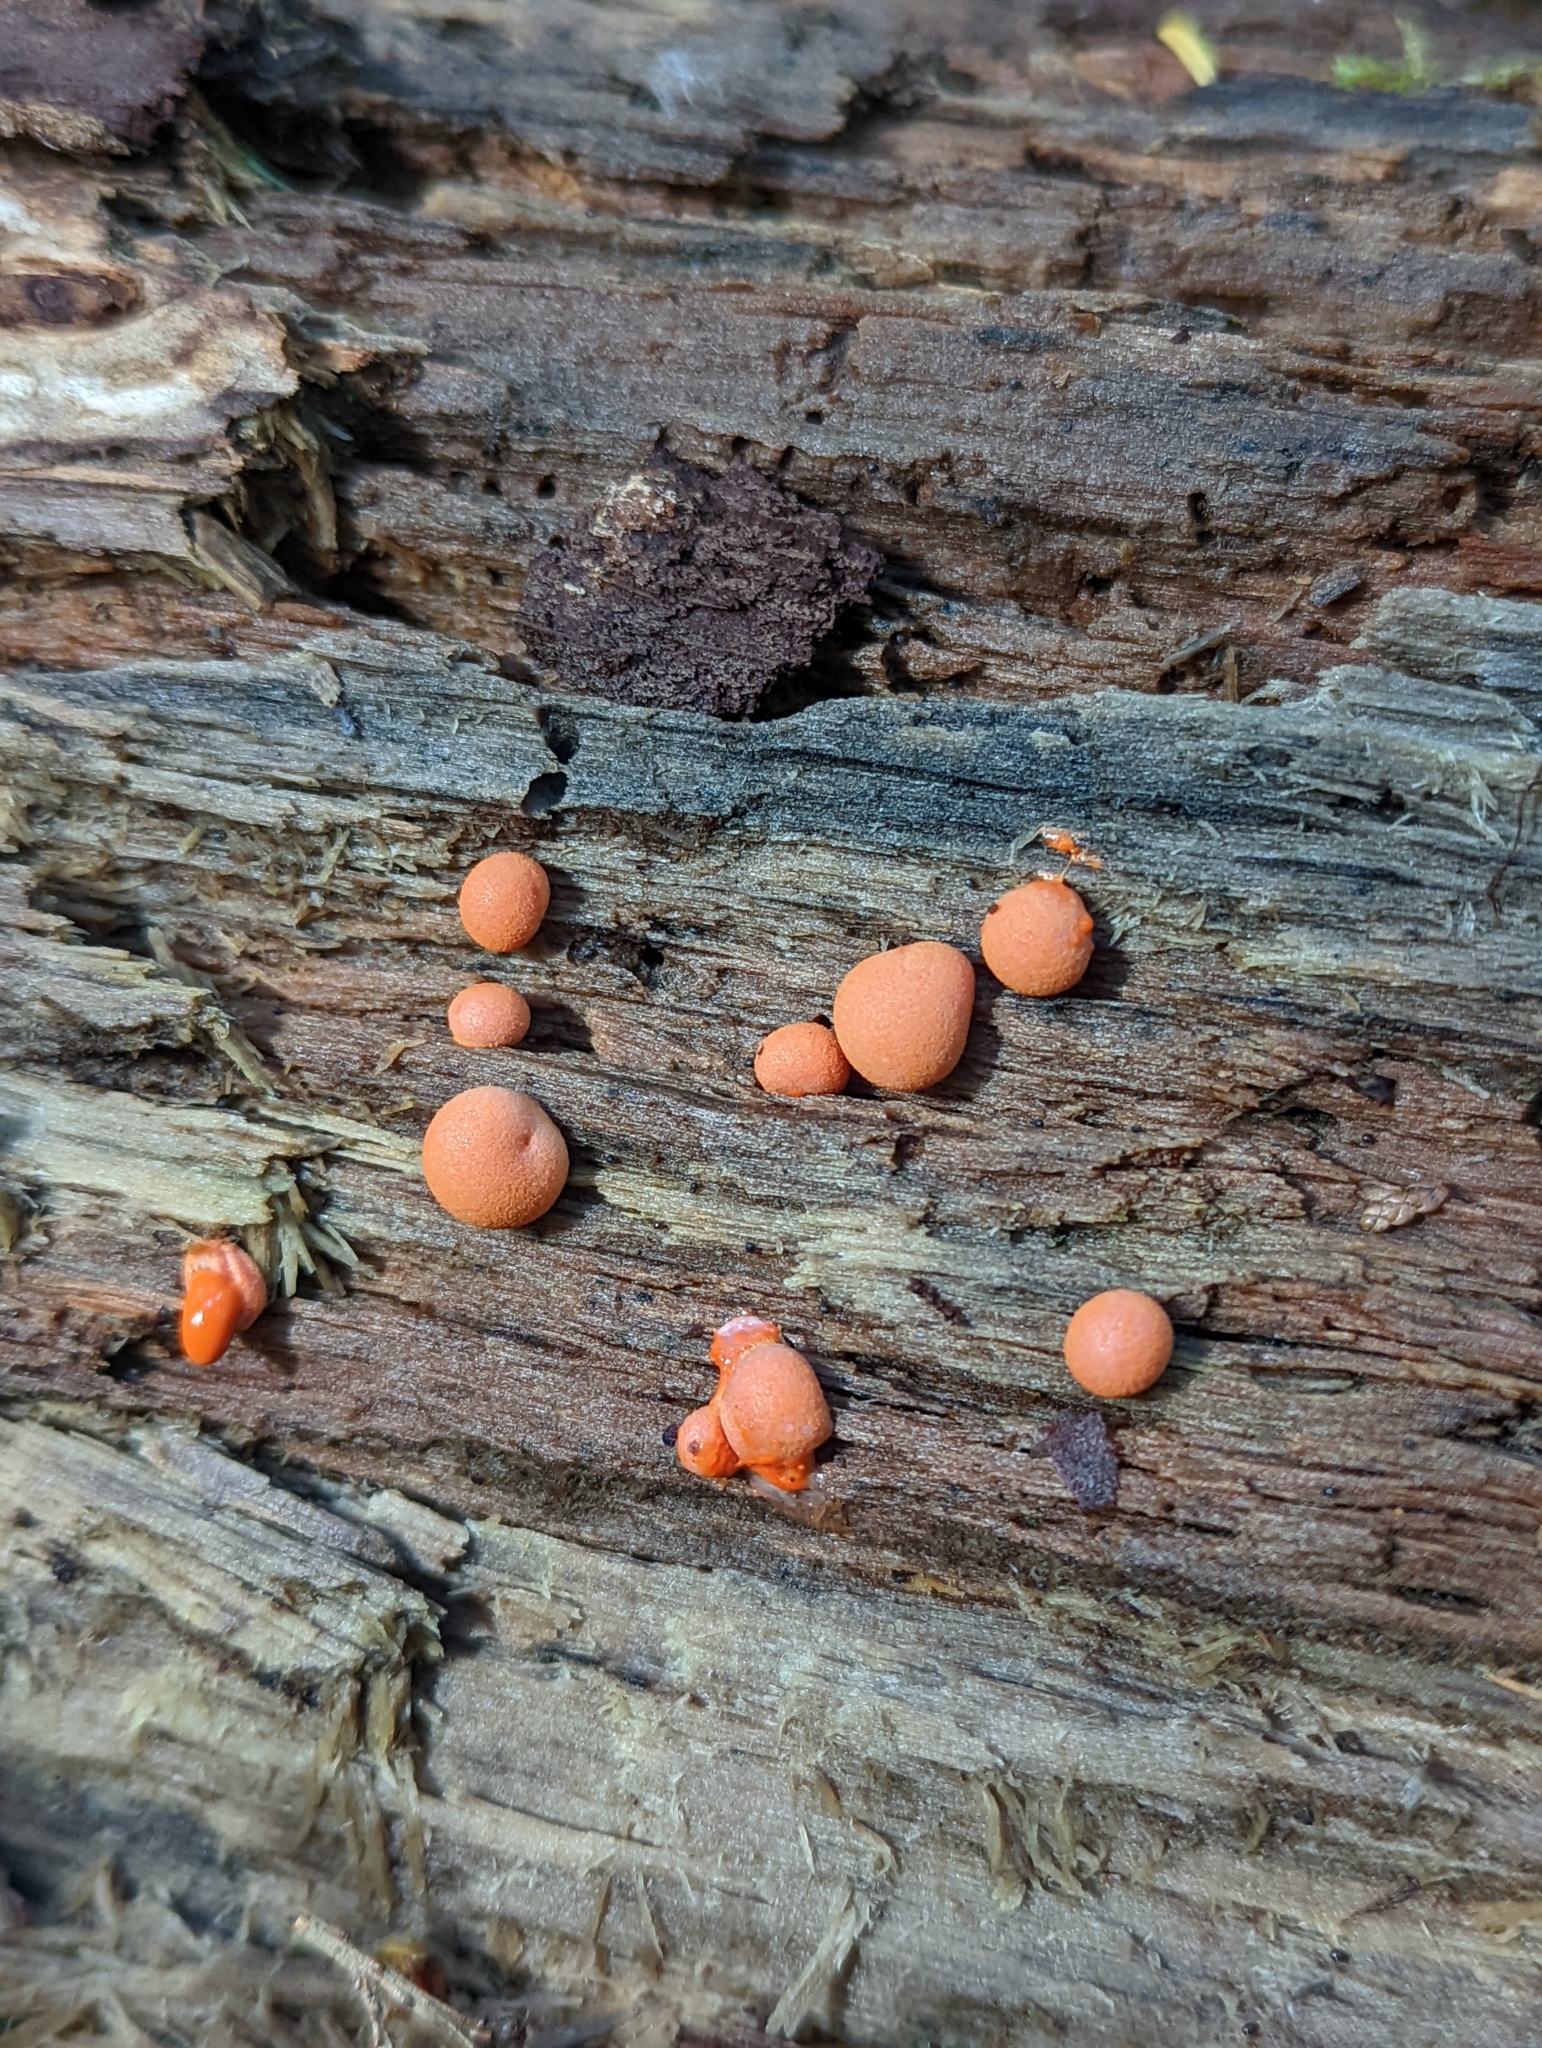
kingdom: Protozoa
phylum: Mycetozoa
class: Myxomycetes
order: Cribrariales
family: Tubiferaceae
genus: Lycogala
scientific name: Lycogala epidendrum
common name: Wolf's milk
